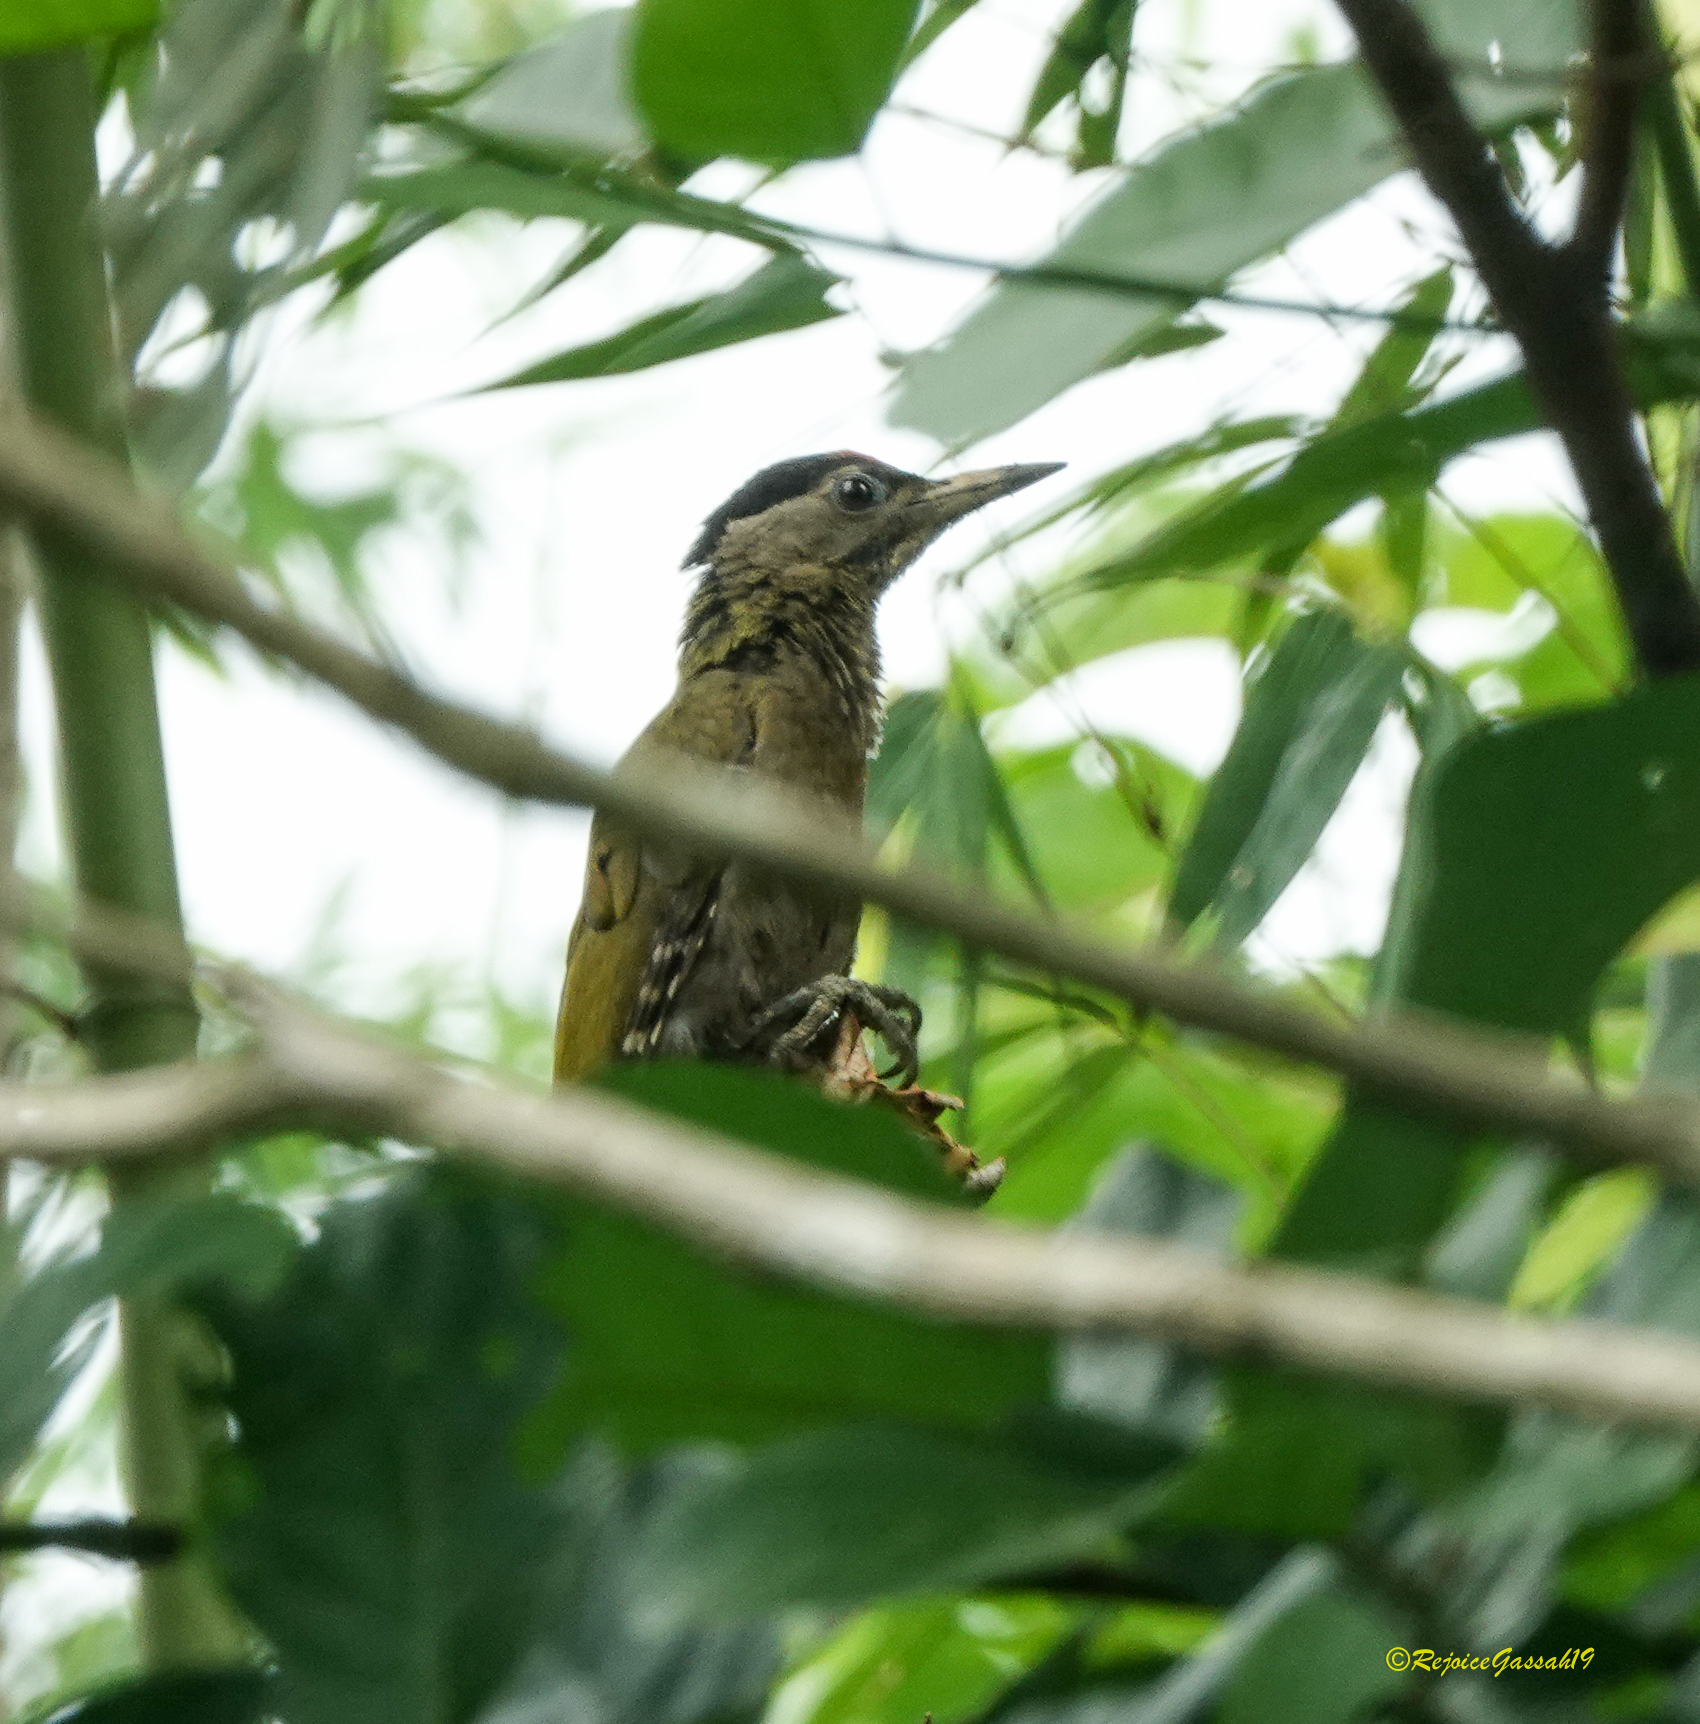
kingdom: Animalia
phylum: Chordata
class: Aves
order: Piciformes
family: Picidae
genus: Picus
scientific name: Picus canus
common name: Grey-headed woodpecker
